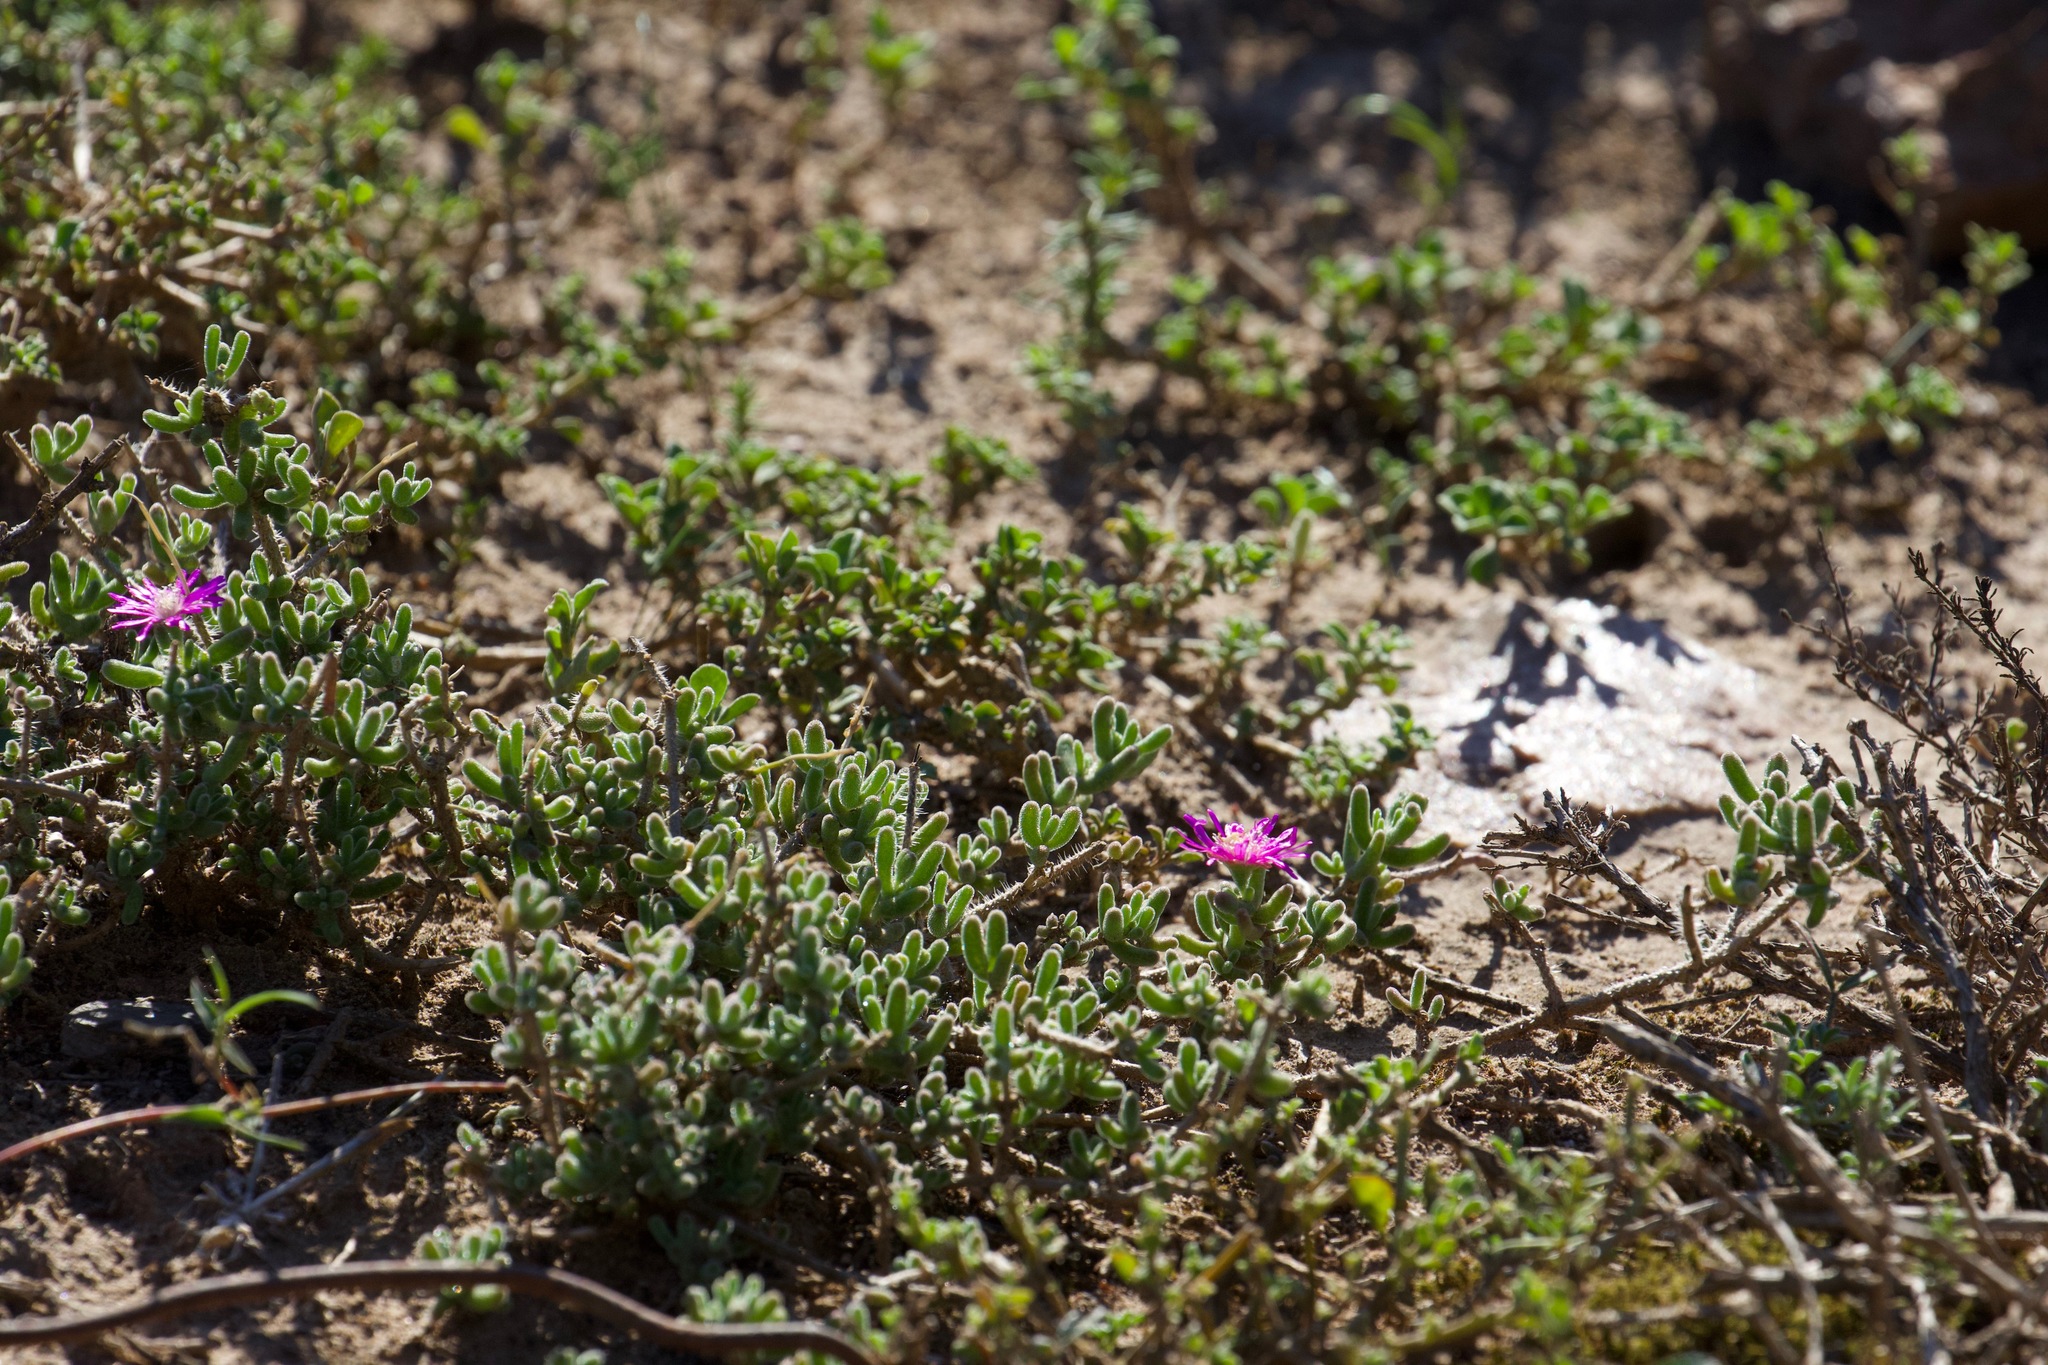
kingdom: Plantae
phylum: Tracheophyta
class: Magnoliopsida
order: Caryophyllales
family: Aizoaceae
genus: Drosanthemum
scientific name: Drosanthemum hispidum
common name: Hairy dewflower
